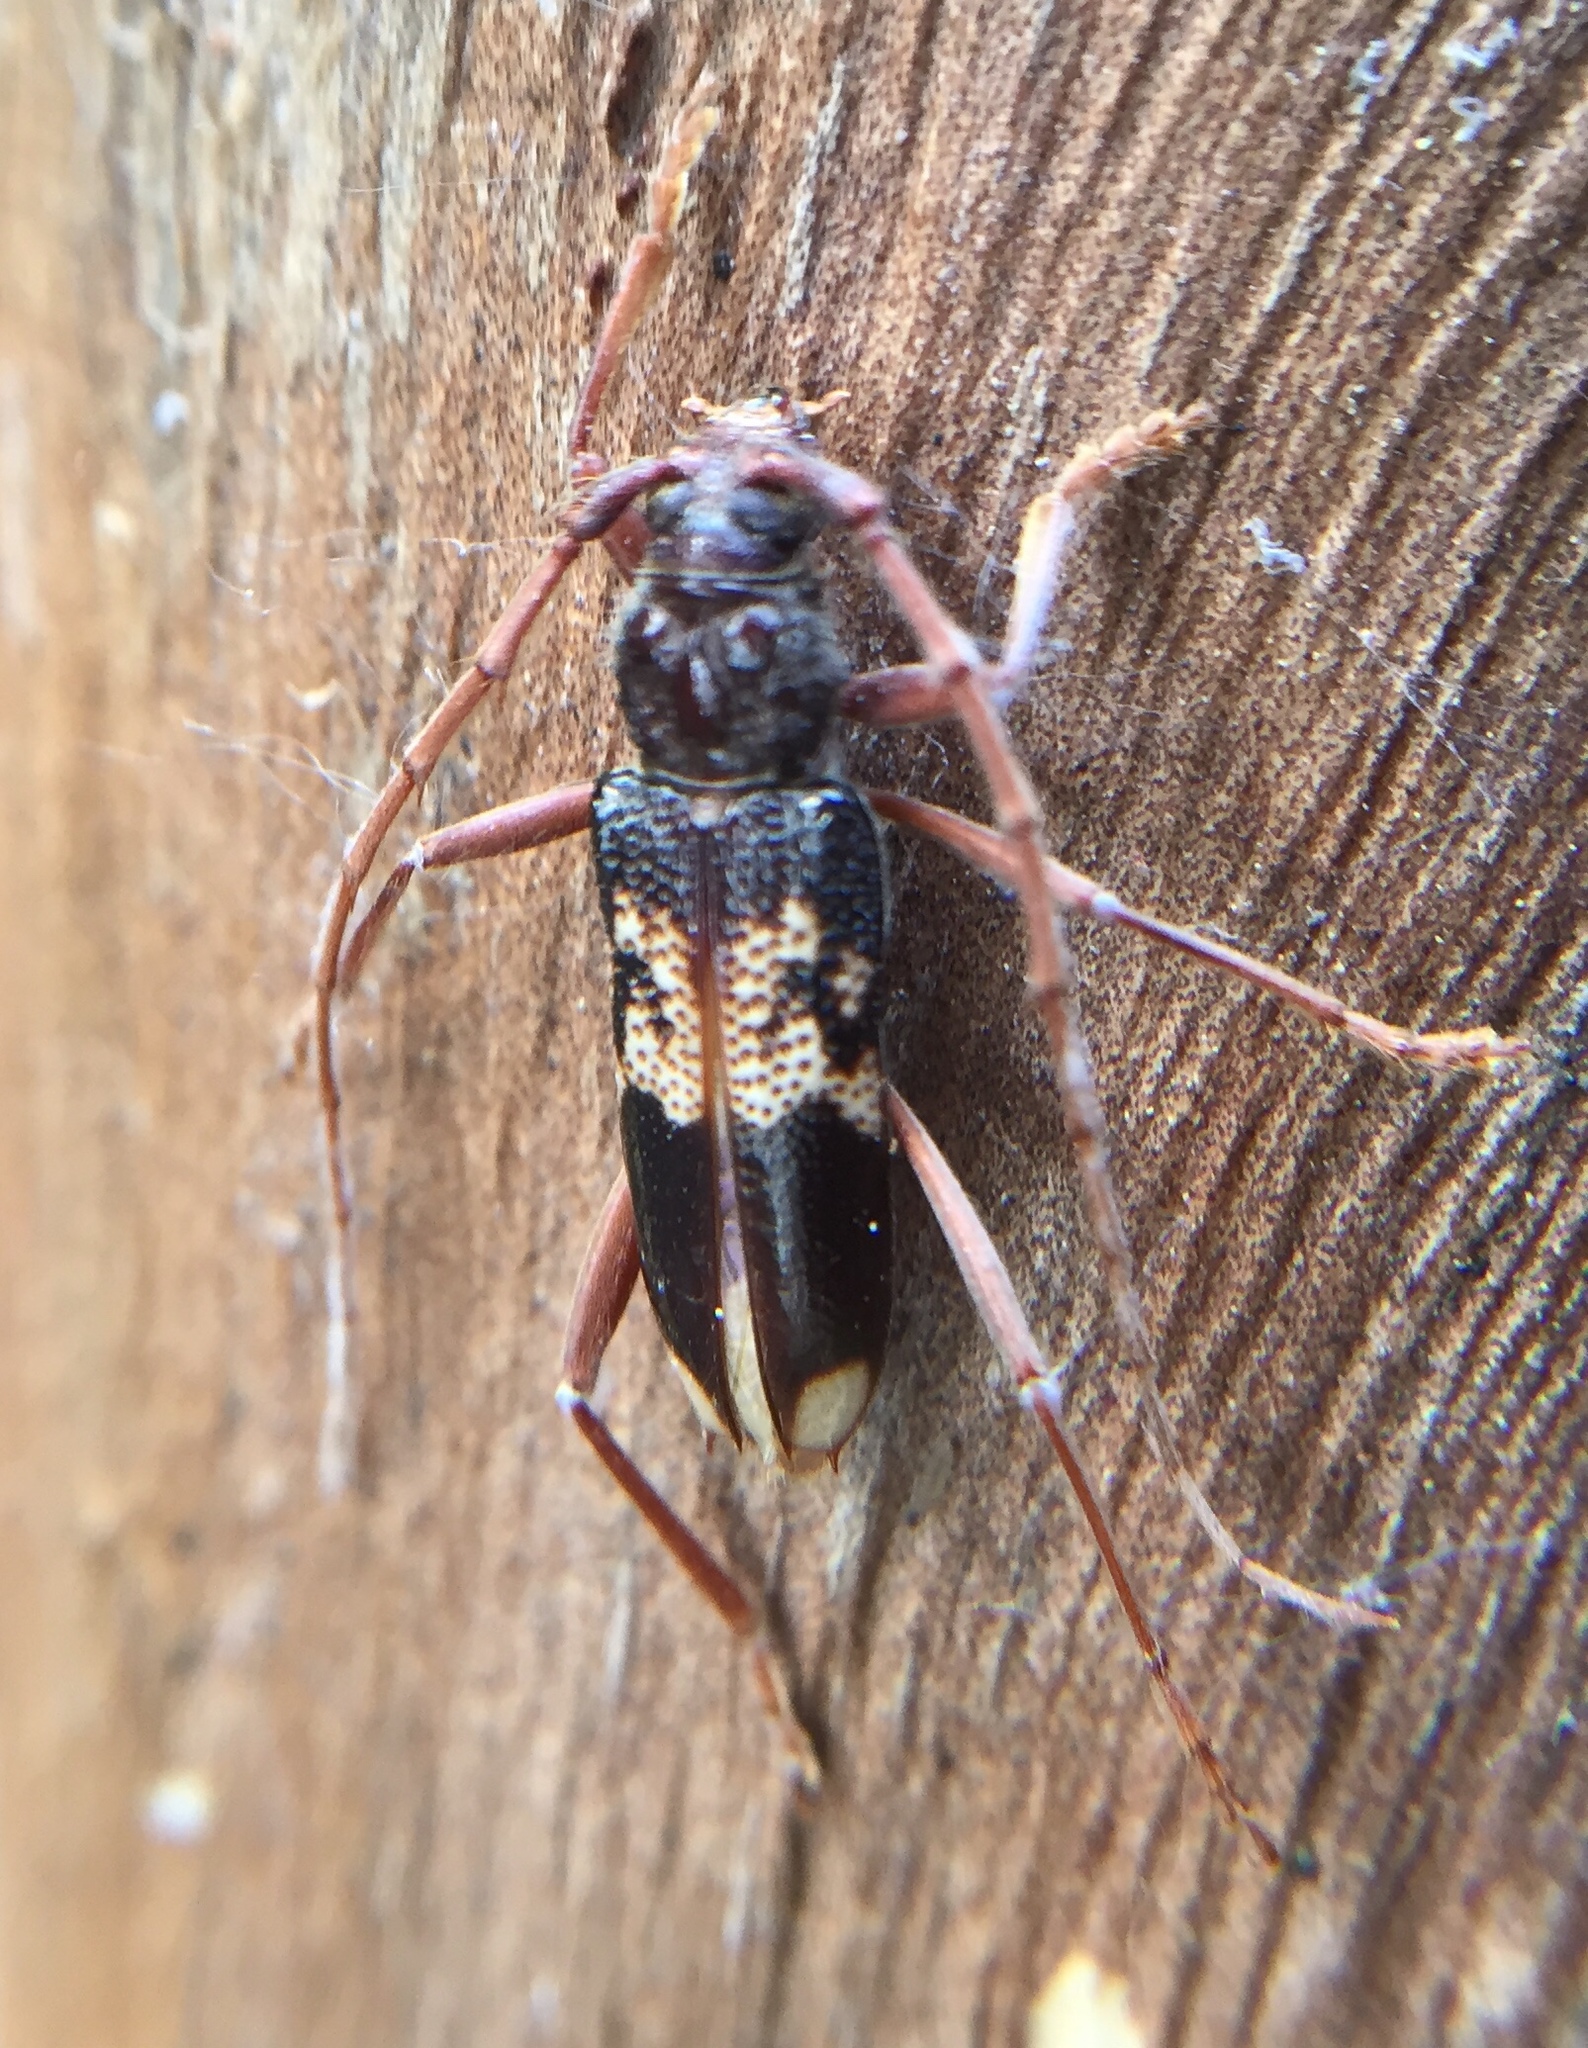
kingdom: Animalia
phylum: Arthropoda
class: Insecta
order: Coleoptera
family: Cerambycidae
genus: Phoracantha
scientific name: Phoracantha semipunctata
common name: Eucalyptus longhorn borer
